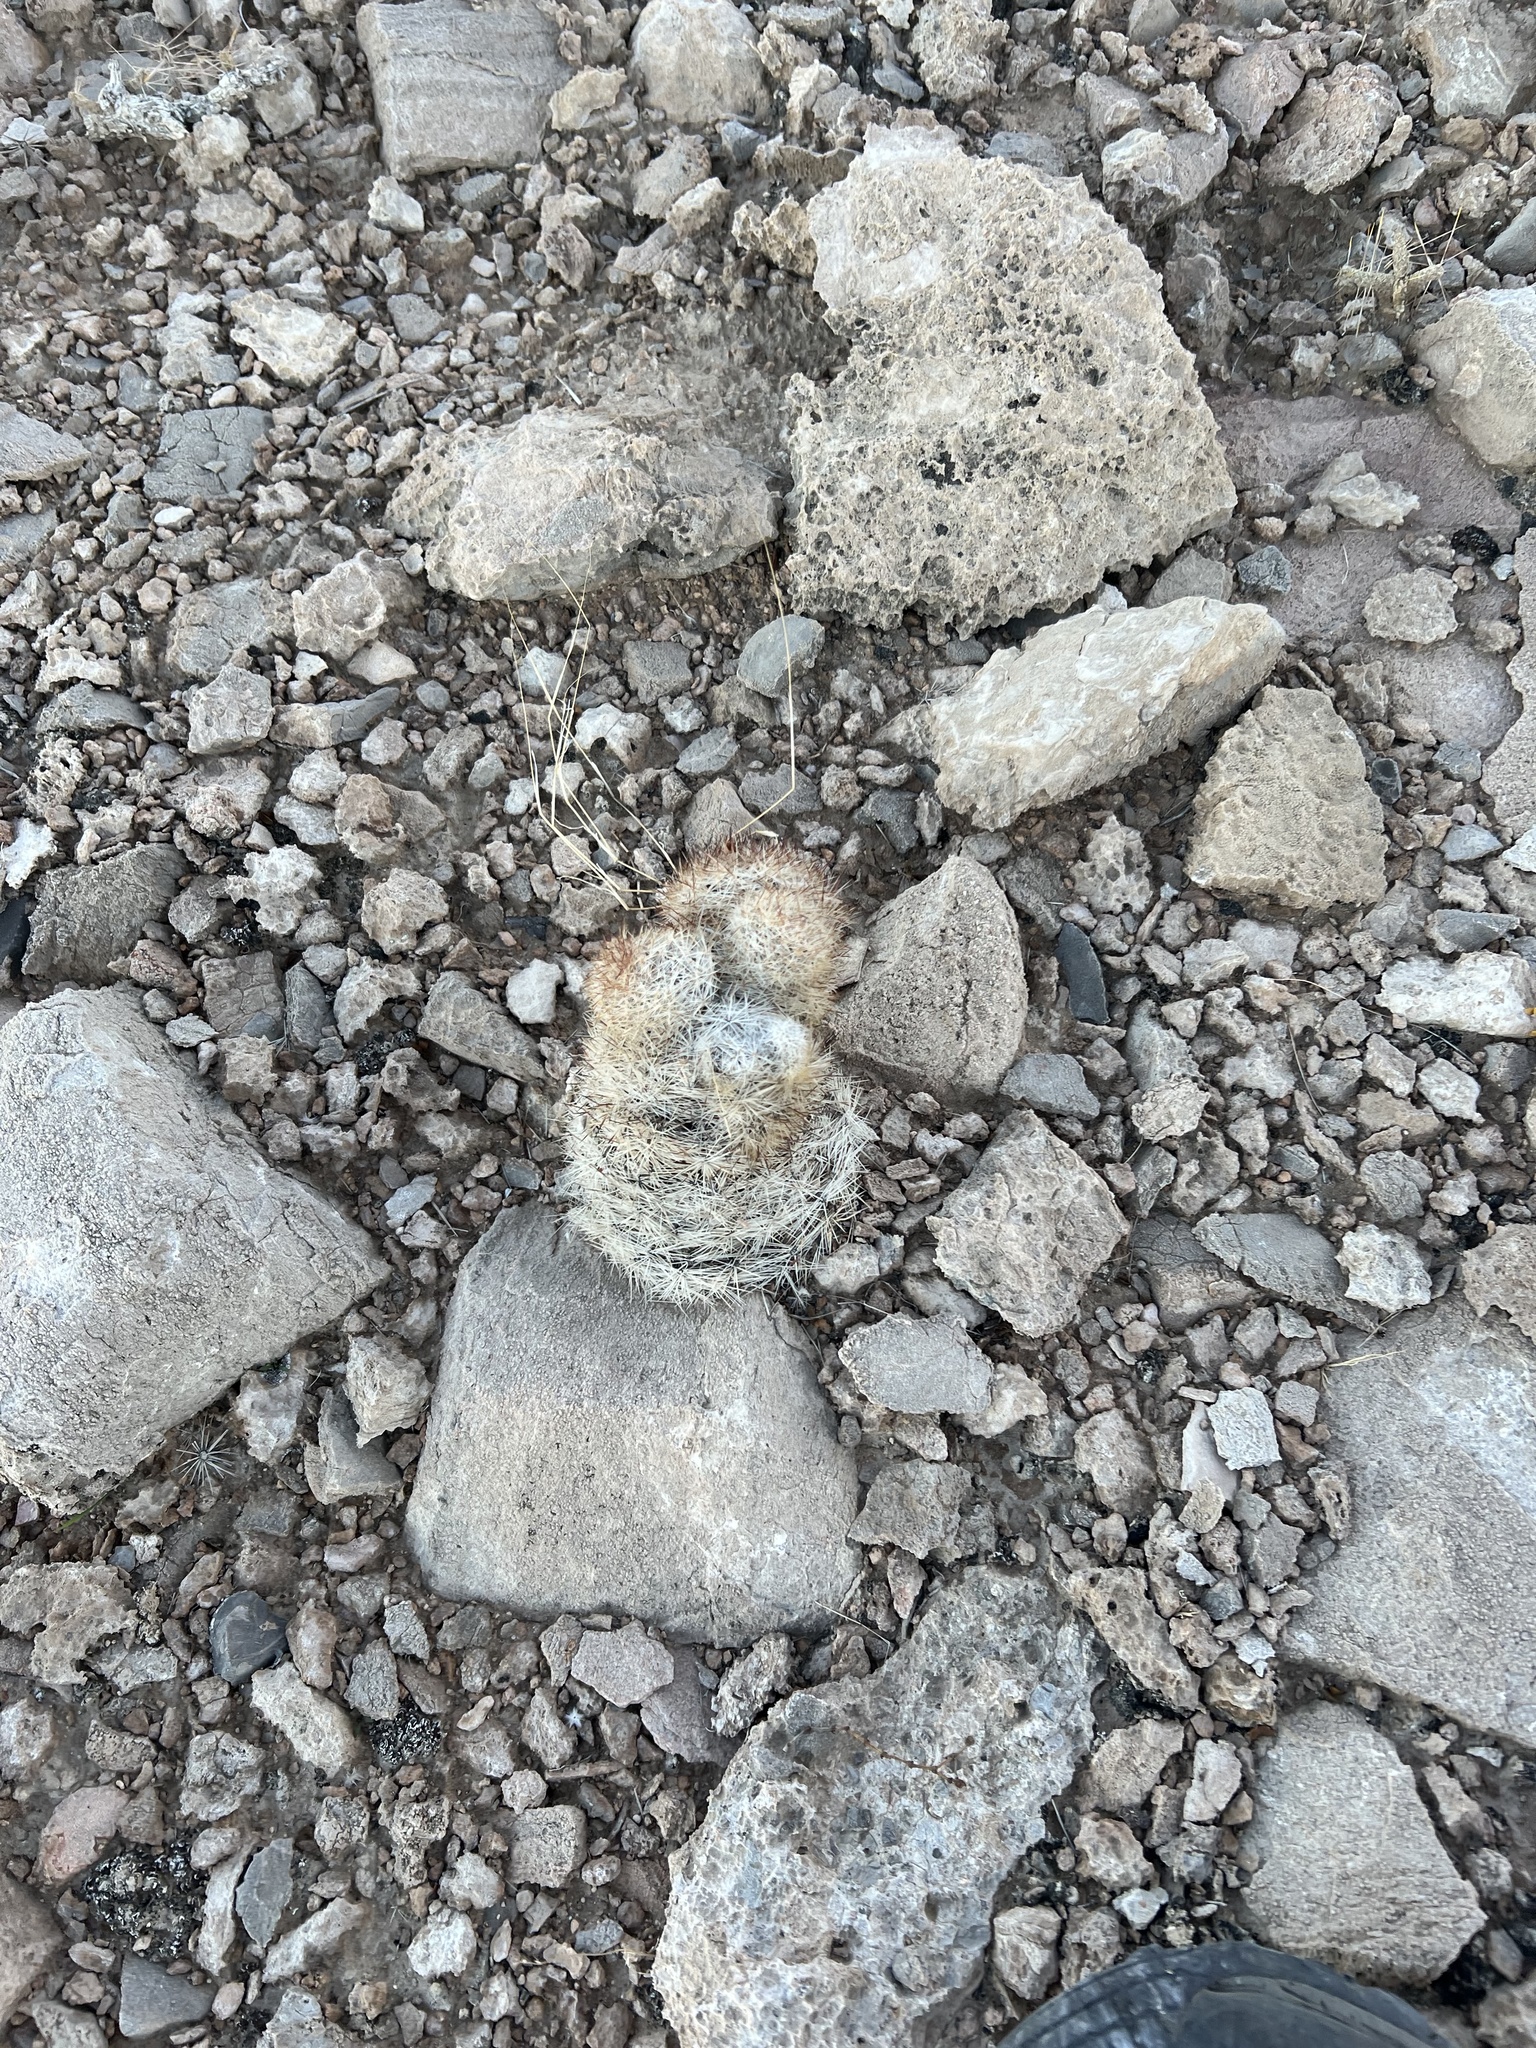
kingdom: Plantae
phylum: Tracheophyta
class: Magnoliopsida
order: Caryophyllales
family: Cactaceae
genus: Pelecyphora
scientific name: Pelecyphora dasyacantha
